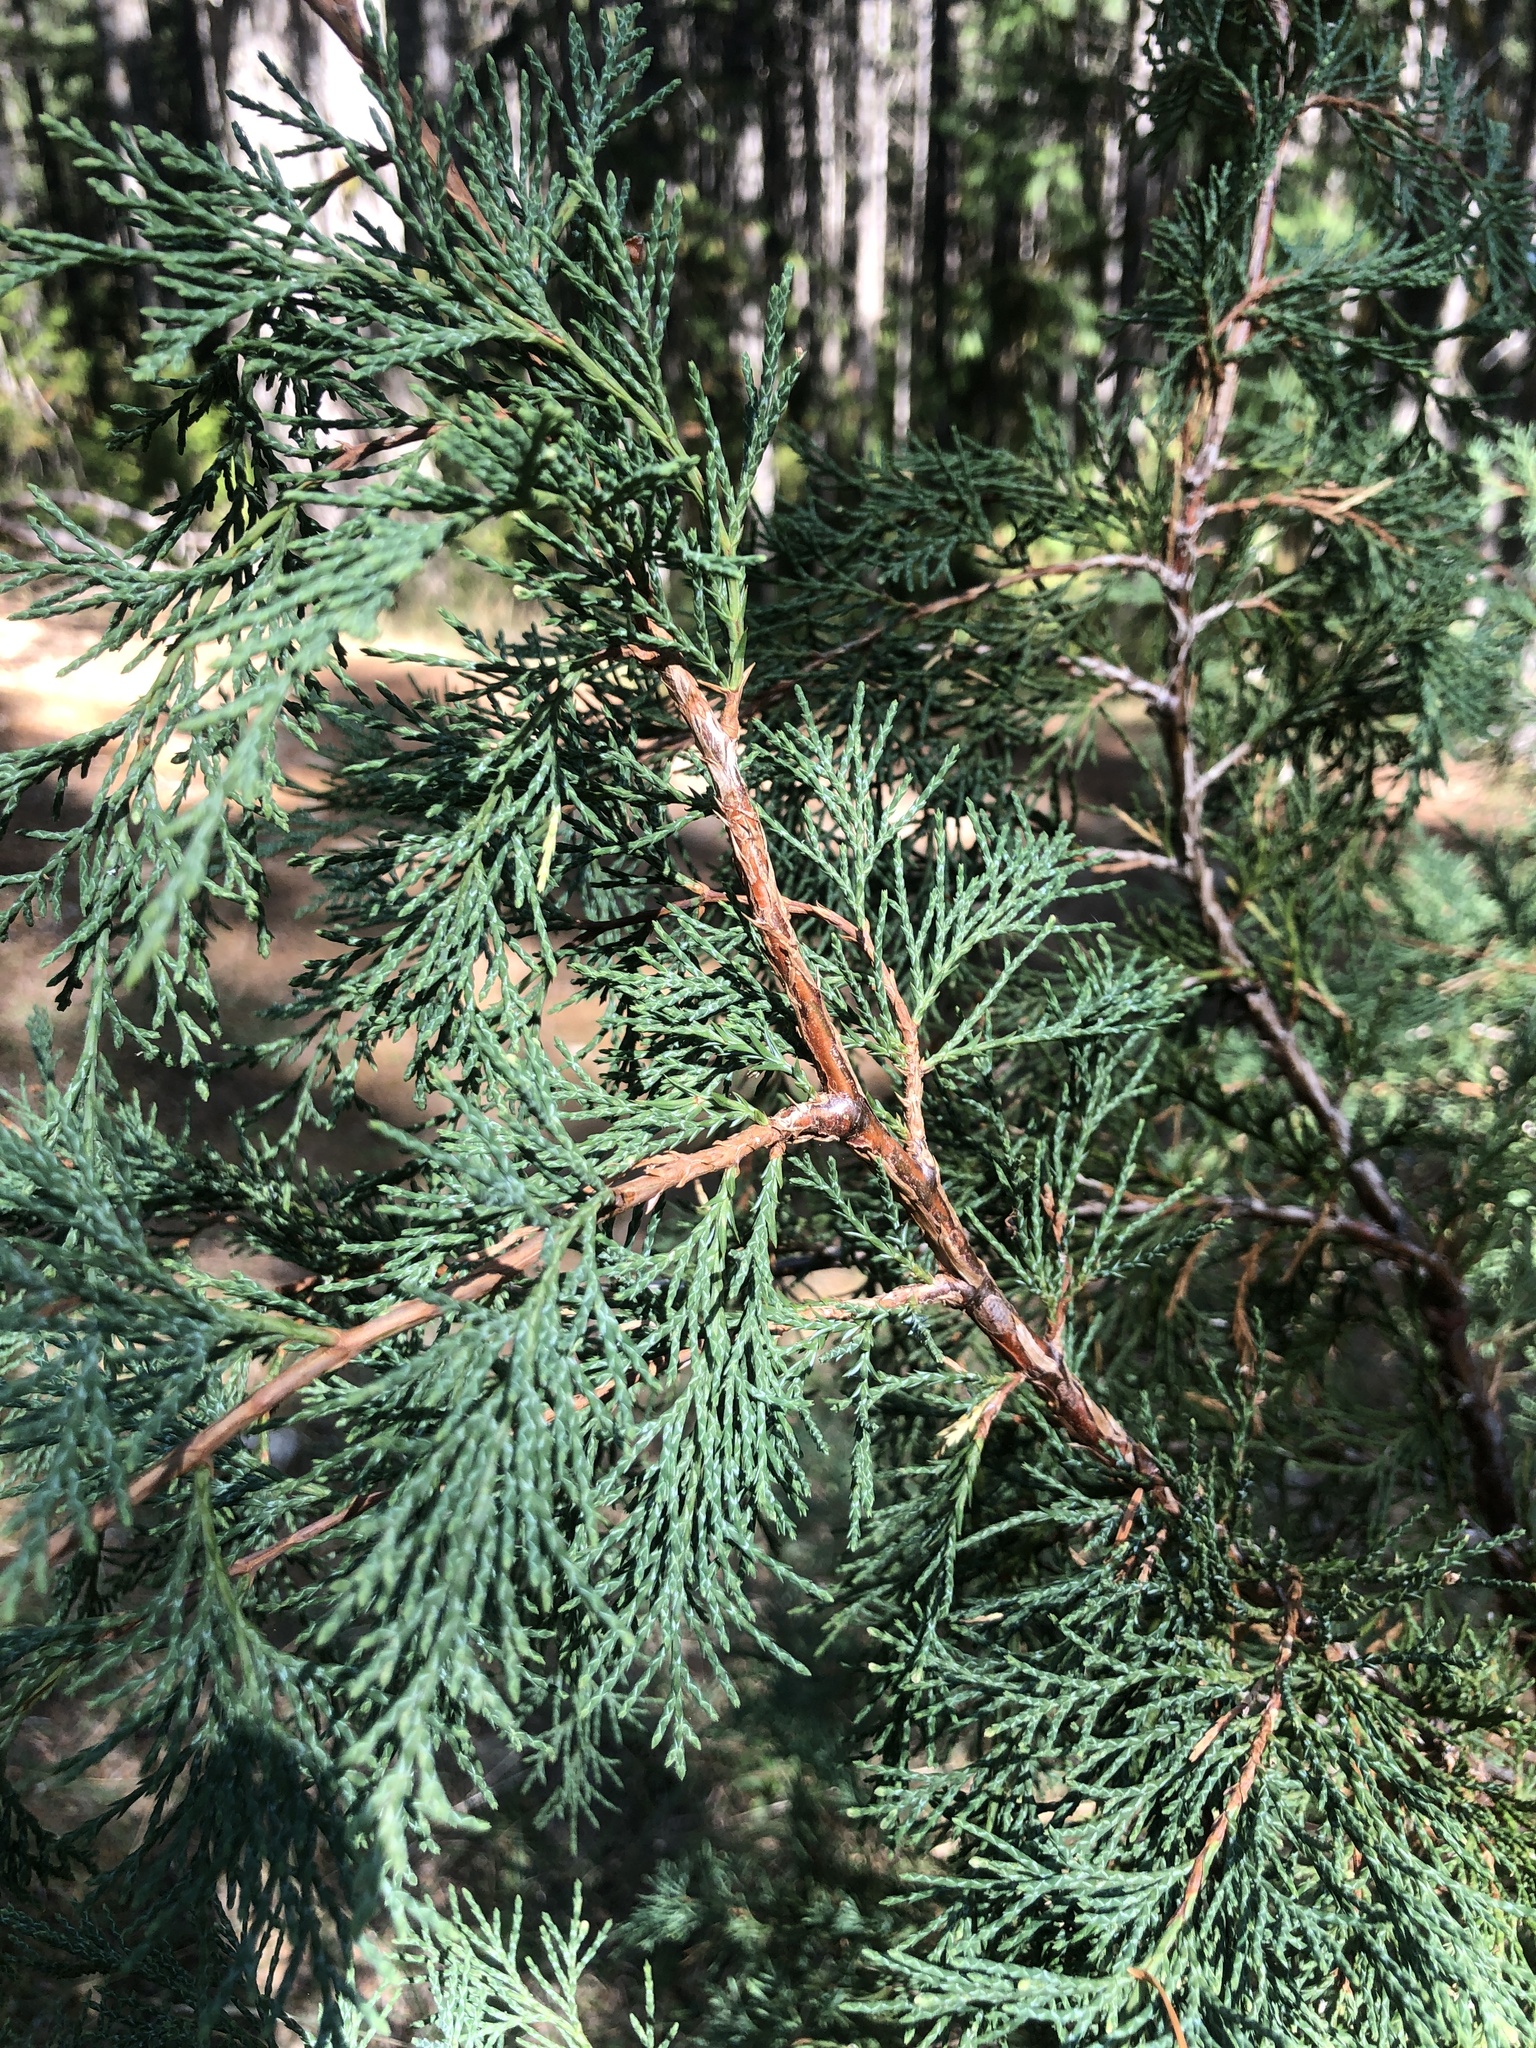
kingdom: Plantae
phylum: Tracheophyta
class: Pinopsida
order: Pinales
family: Cupressaceae
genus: Juniperus
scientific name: Juniperus scopulorum
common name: Rocky mountain juniper
